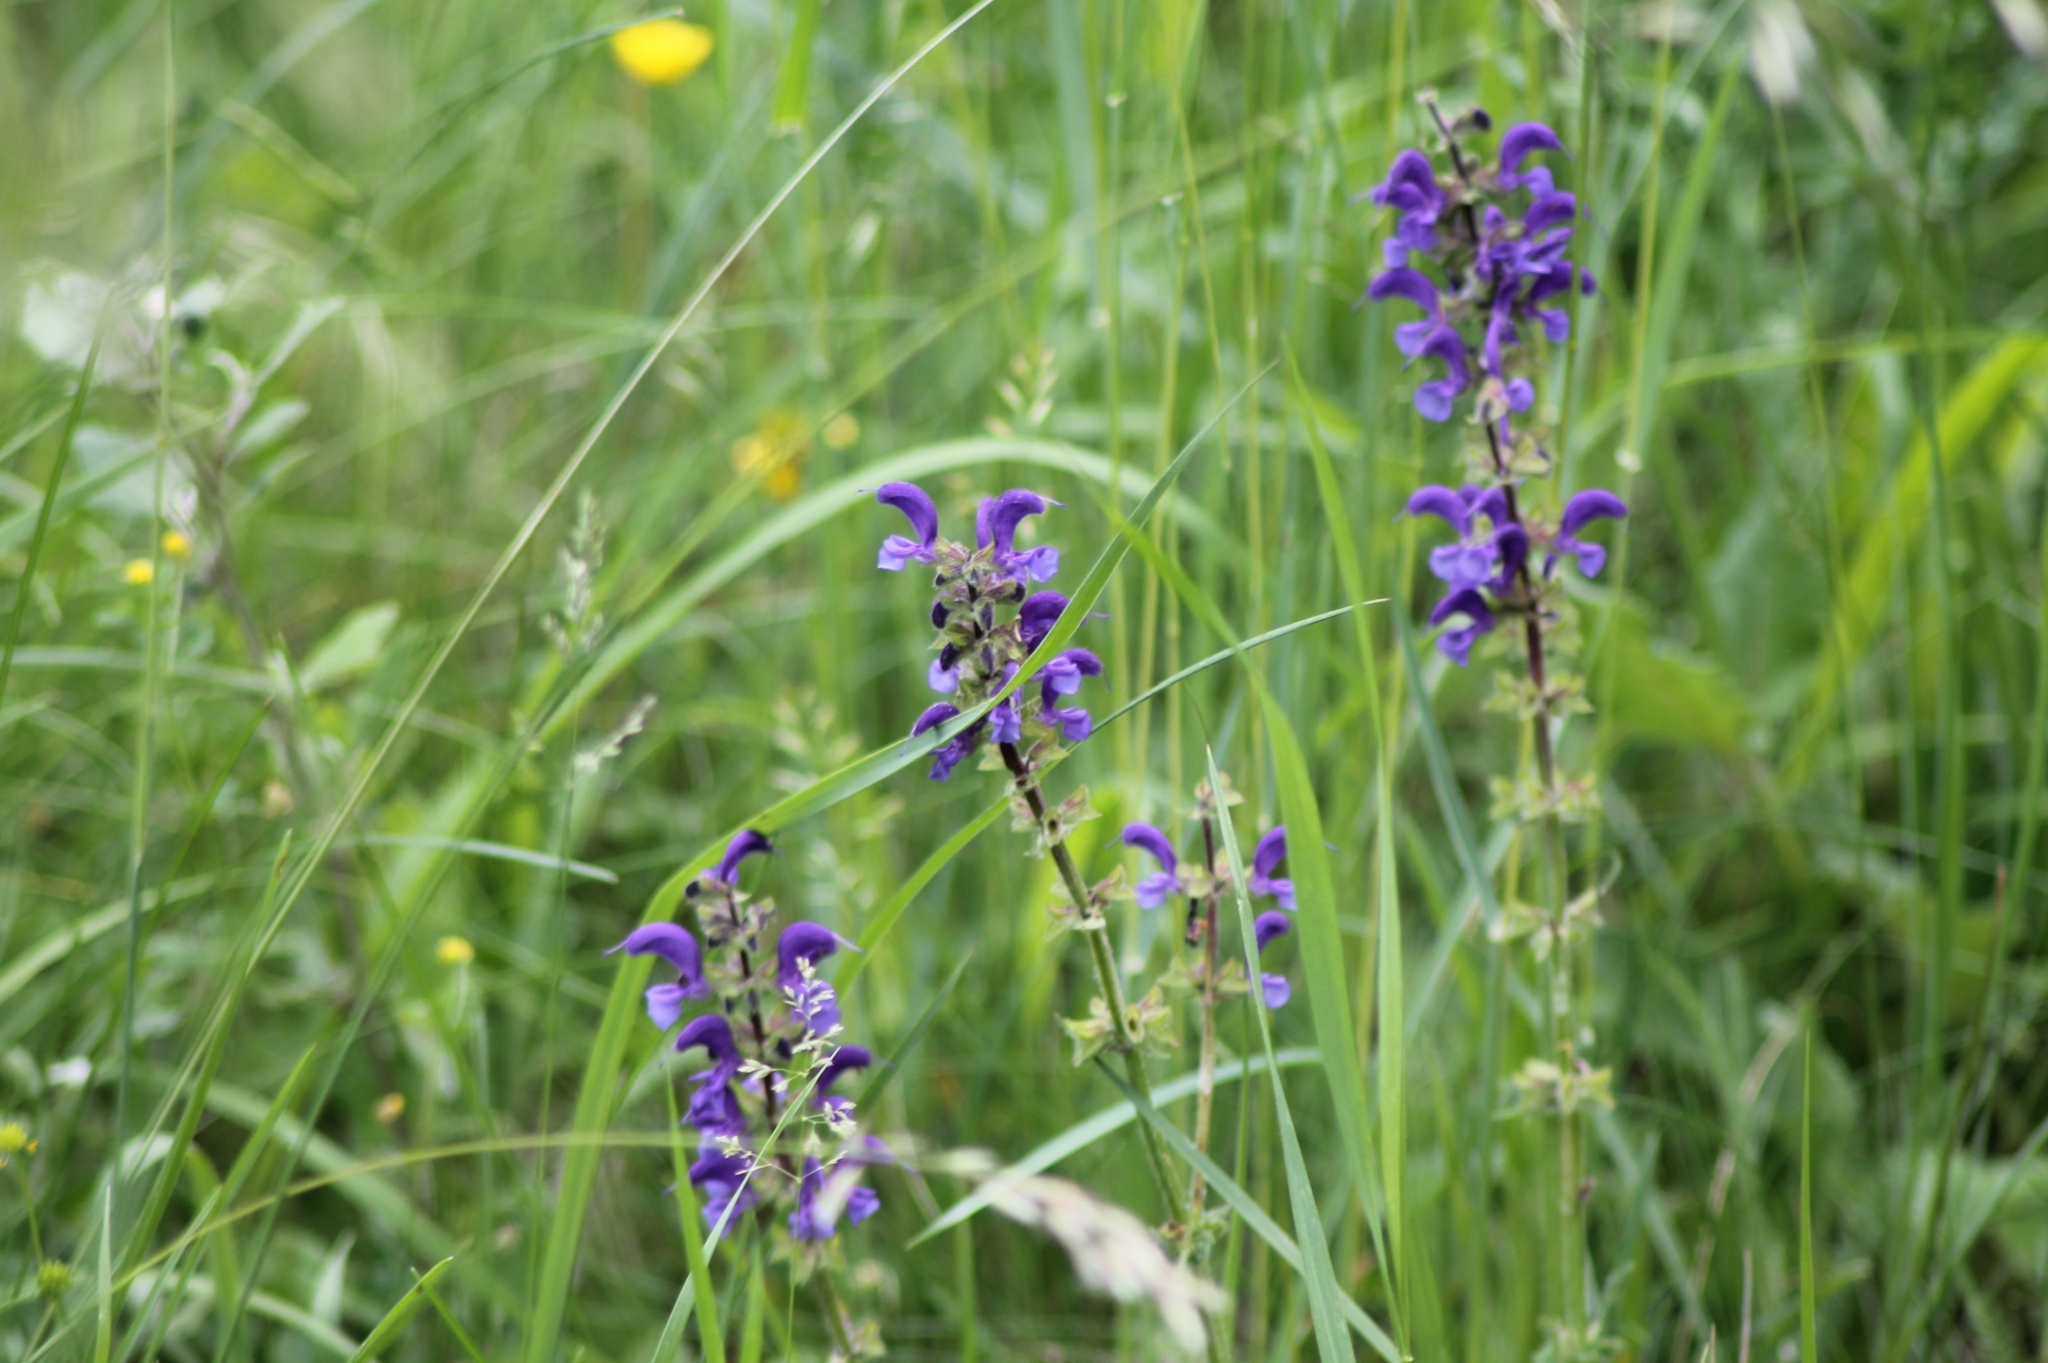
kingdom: Plantae
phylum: Tracheophyta
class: Magnoliopsida
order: Lamiales
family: Lamiaceae
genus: Salvia
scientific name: Salvia pratensis
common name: Meadow sage
